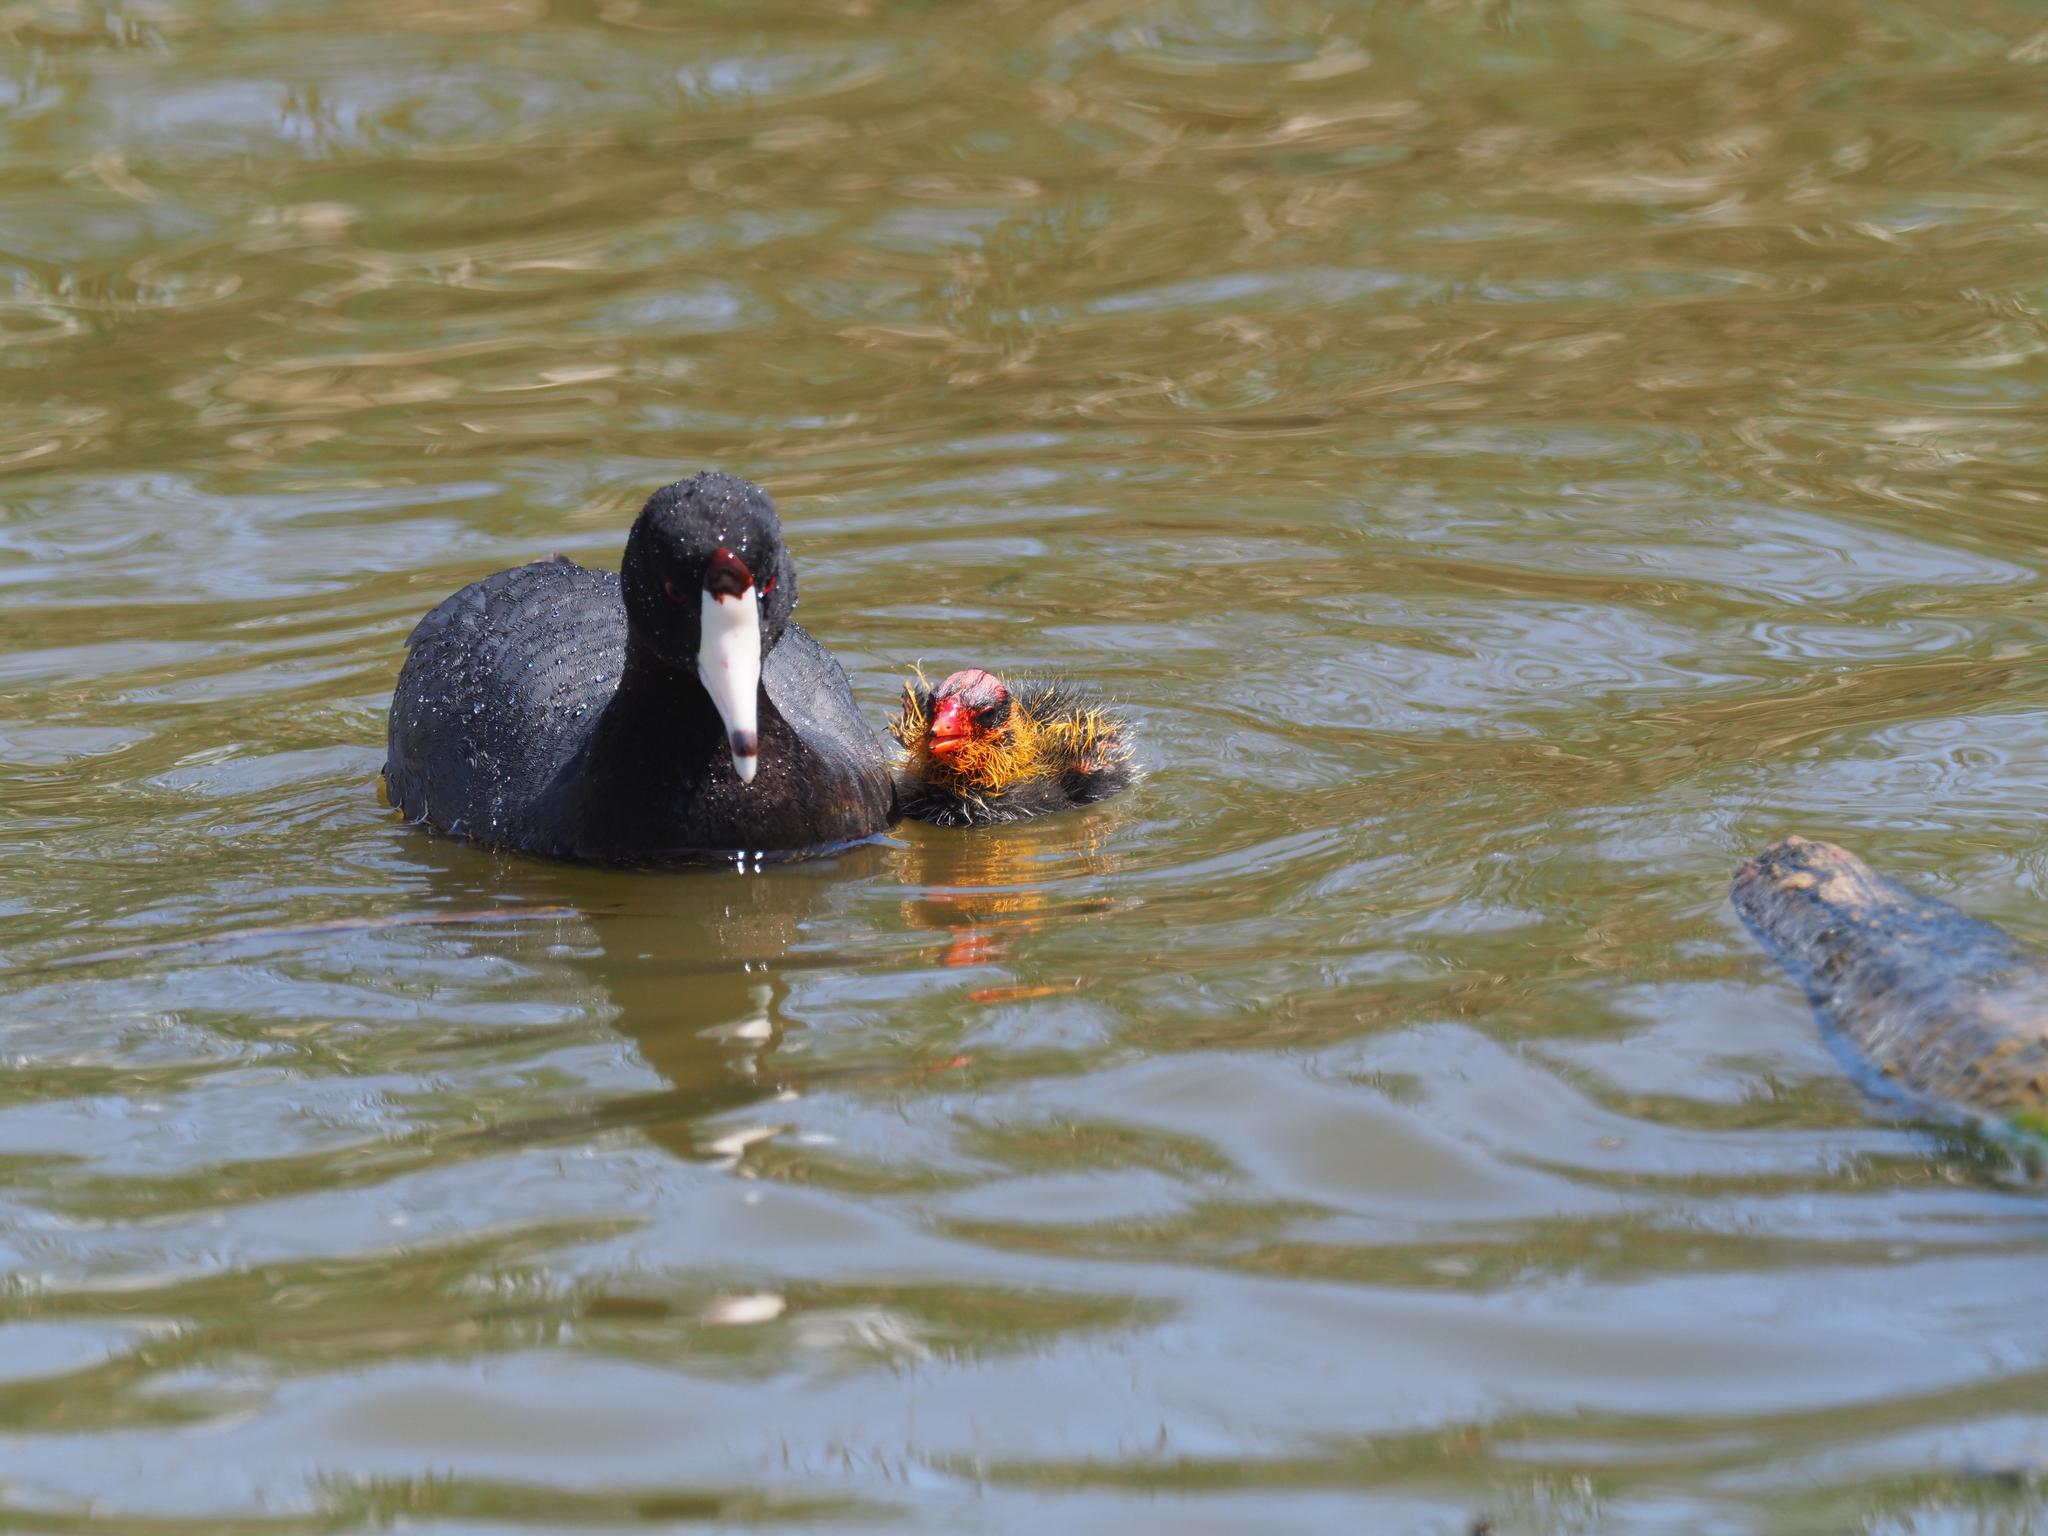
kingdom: Animalia
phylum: Chordata
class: Aves
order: Gruiformes
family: Rallidae
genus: Fulica
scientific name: Fulica americana
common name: American coot
